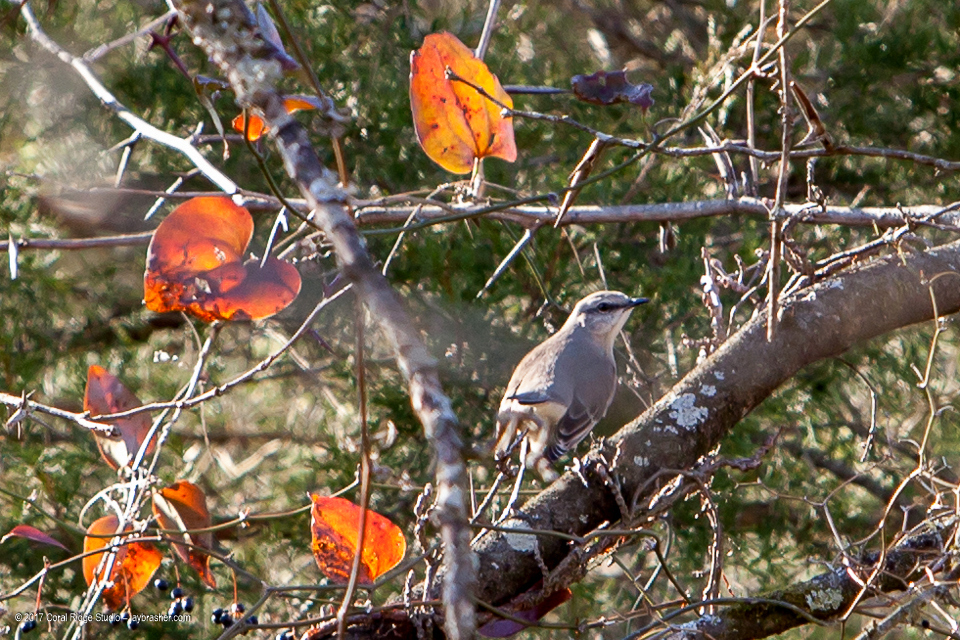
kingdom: Animalia
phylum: Chordata
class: Aves
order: Passeriformes
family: Mimidae
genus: Mimus
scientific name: Mimus polyglottos
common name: Northern mockingbird
